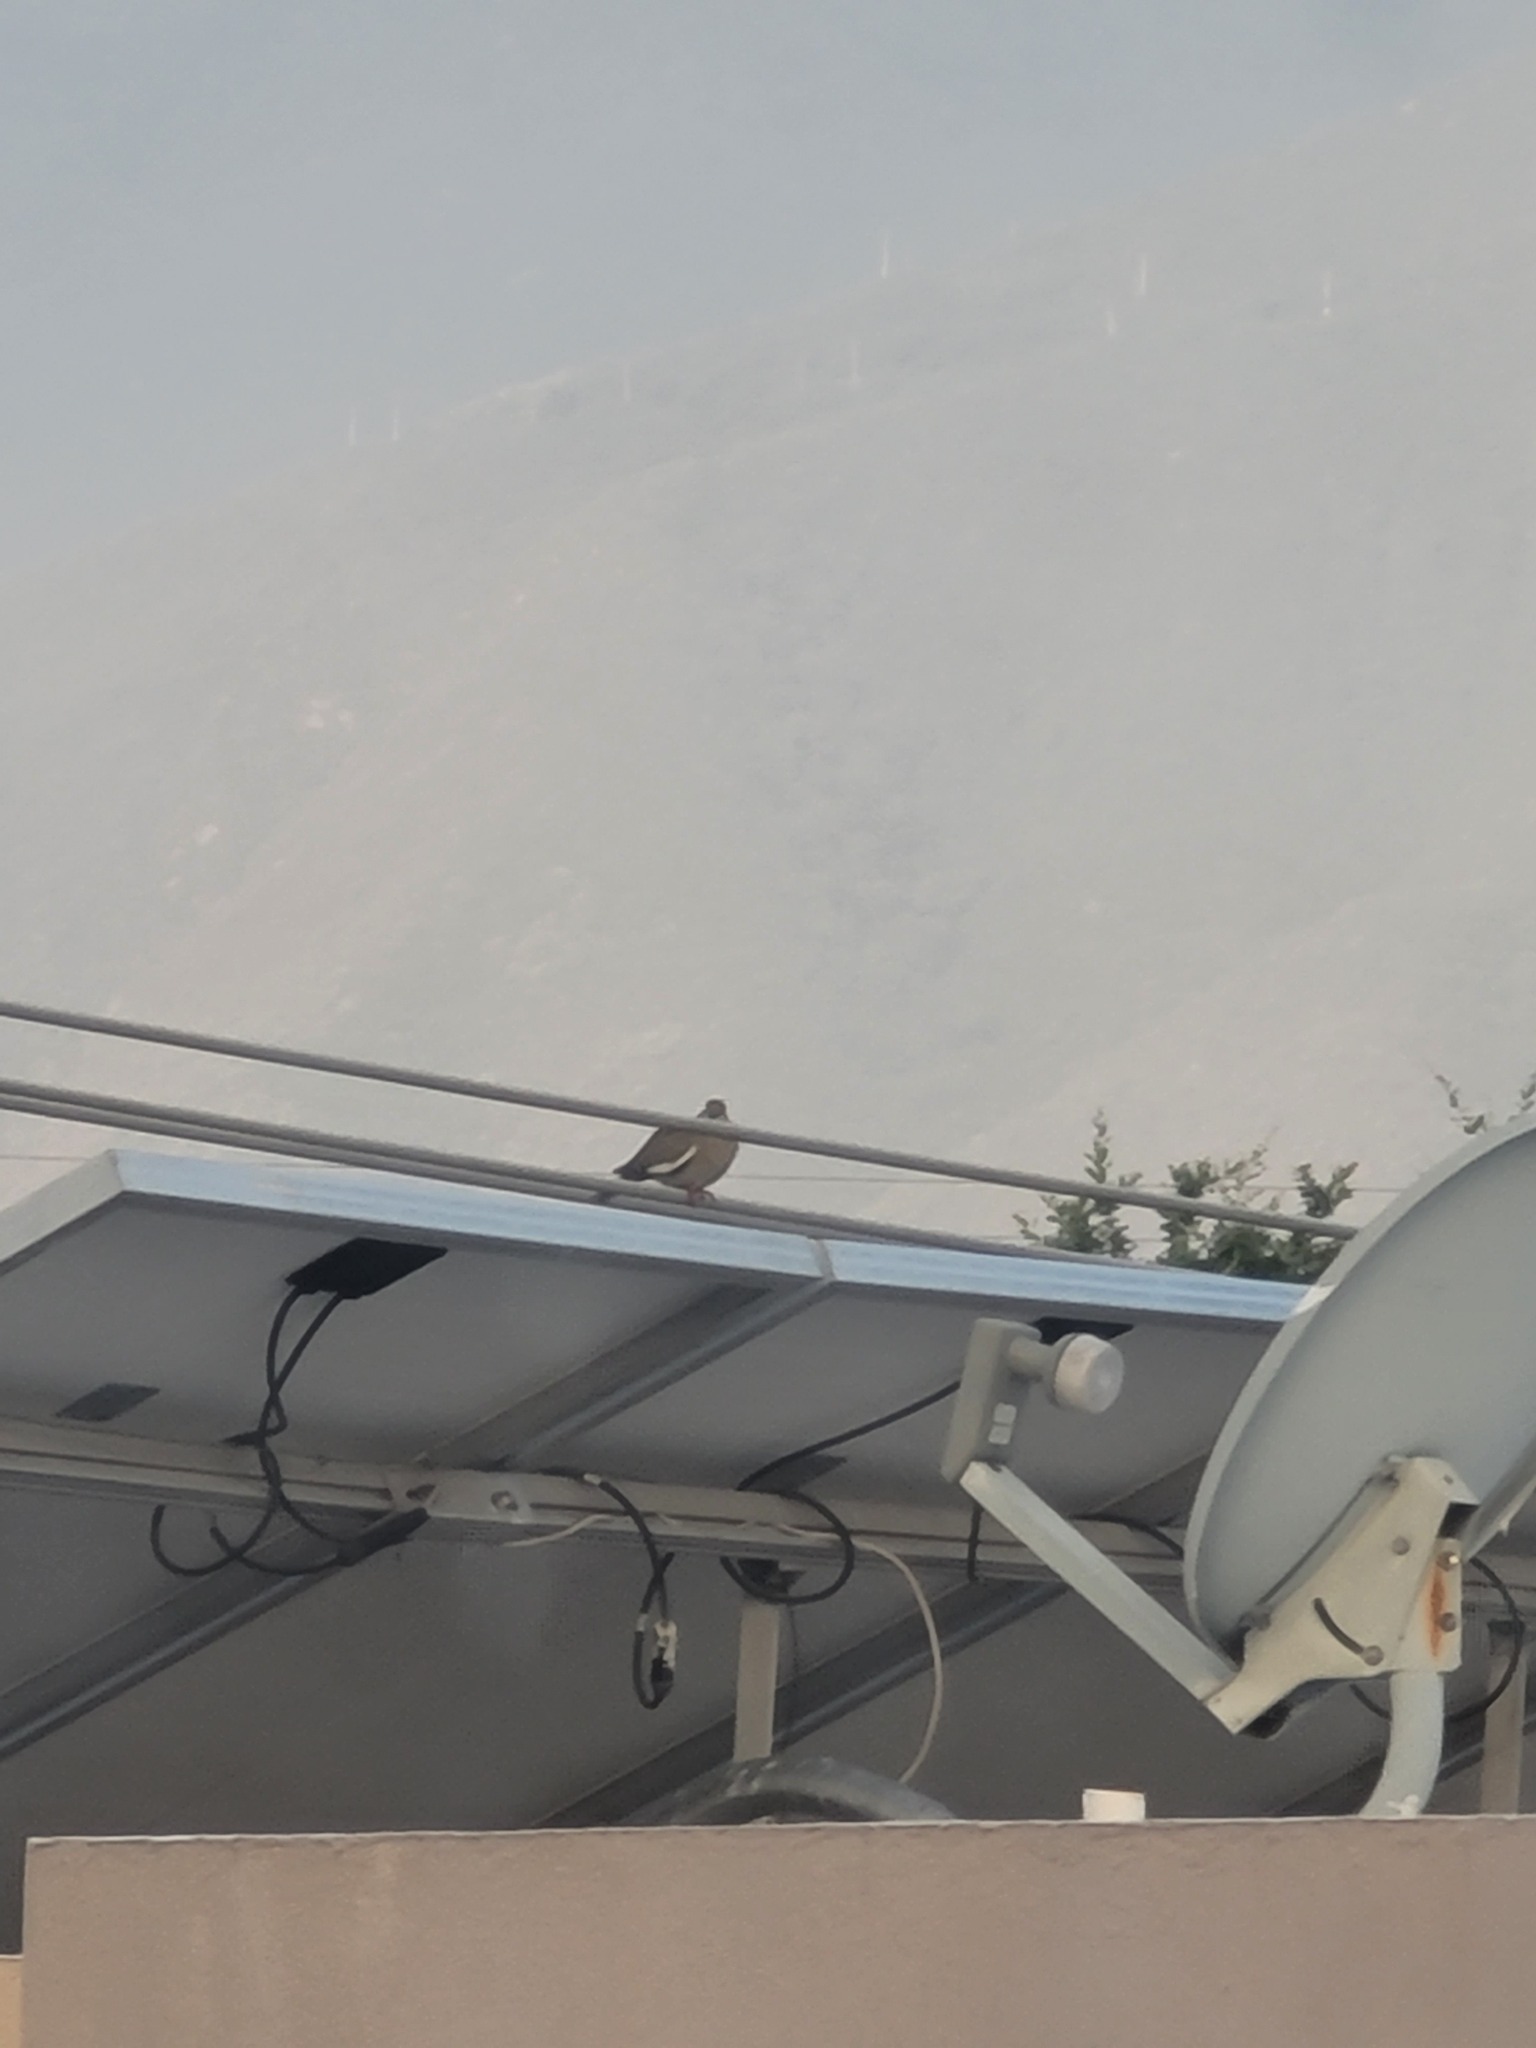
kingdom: Animalia
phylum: Chordata
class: Aves
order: Columbiformes
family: Columbidae
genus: Zenaida
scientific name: Zenaida asiatica
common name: White-winged dove
